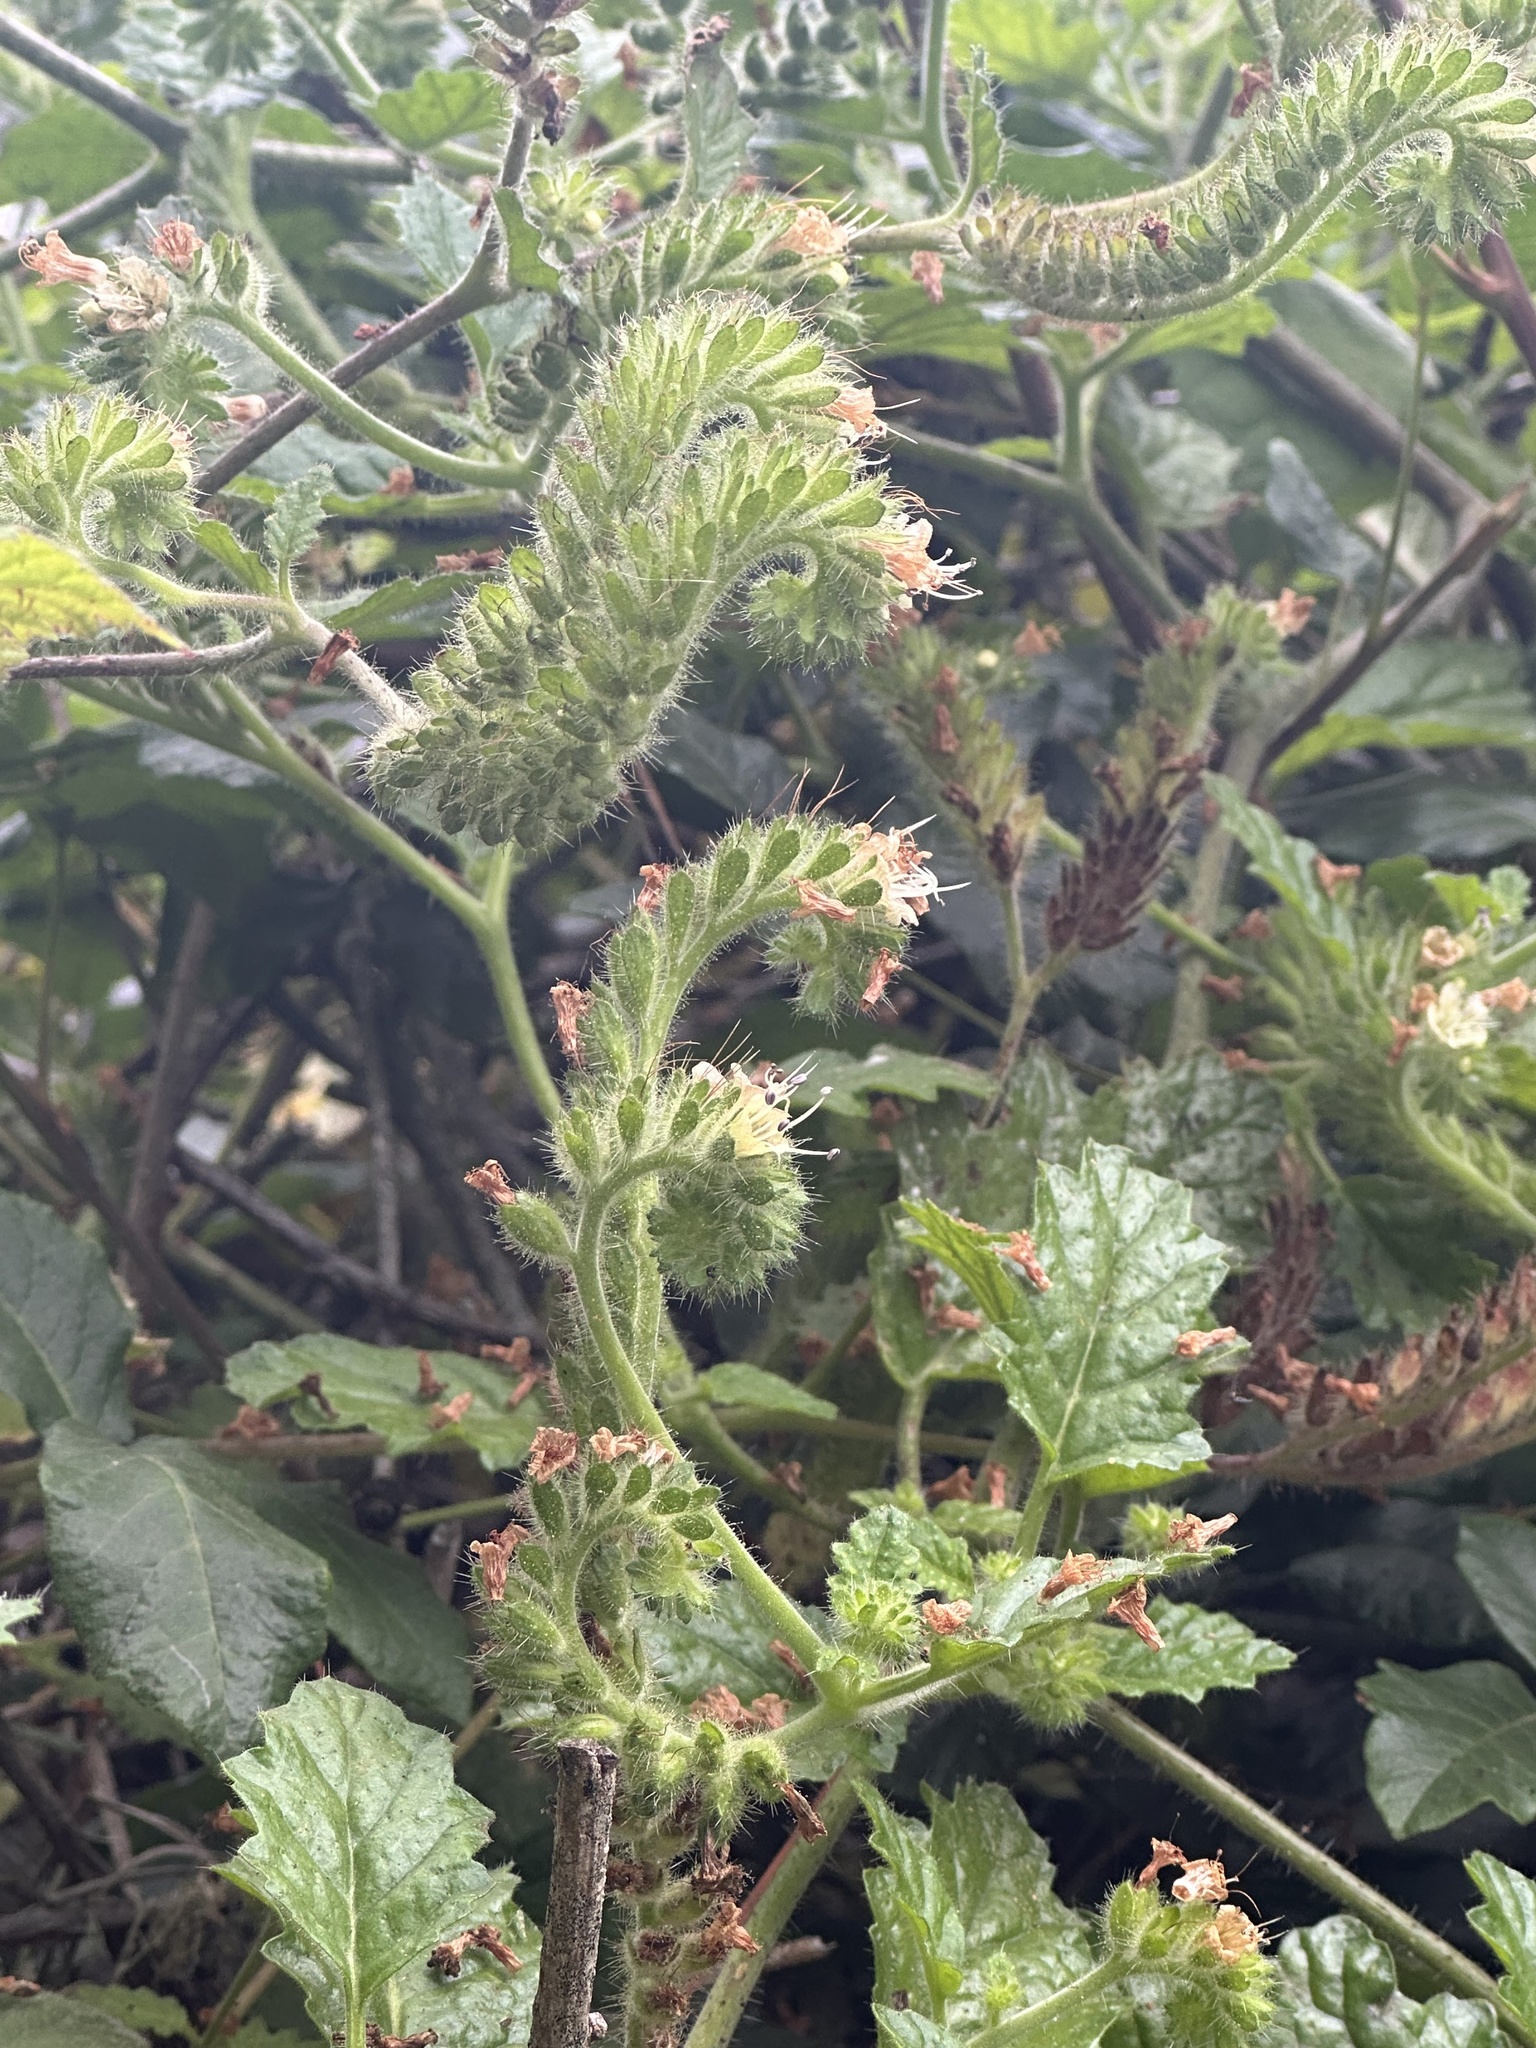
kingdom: Plantae
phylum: Tracheophyta
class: Magnoliopsida
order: Boraginales
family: Hydrophyllaceae
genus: Phacelia
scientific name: Phacelia malvifolia
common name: Mallow-leaf phacelia
